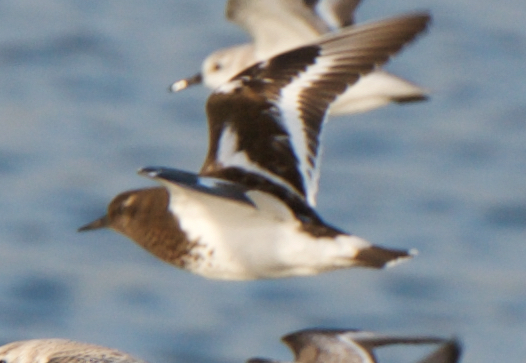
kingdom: Animalia
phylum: Chordata
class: Aves
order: Charadriiformes
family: Scolopacidae
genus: Arenaria
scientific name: Arenaria melanocephala
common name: Black turnstone
